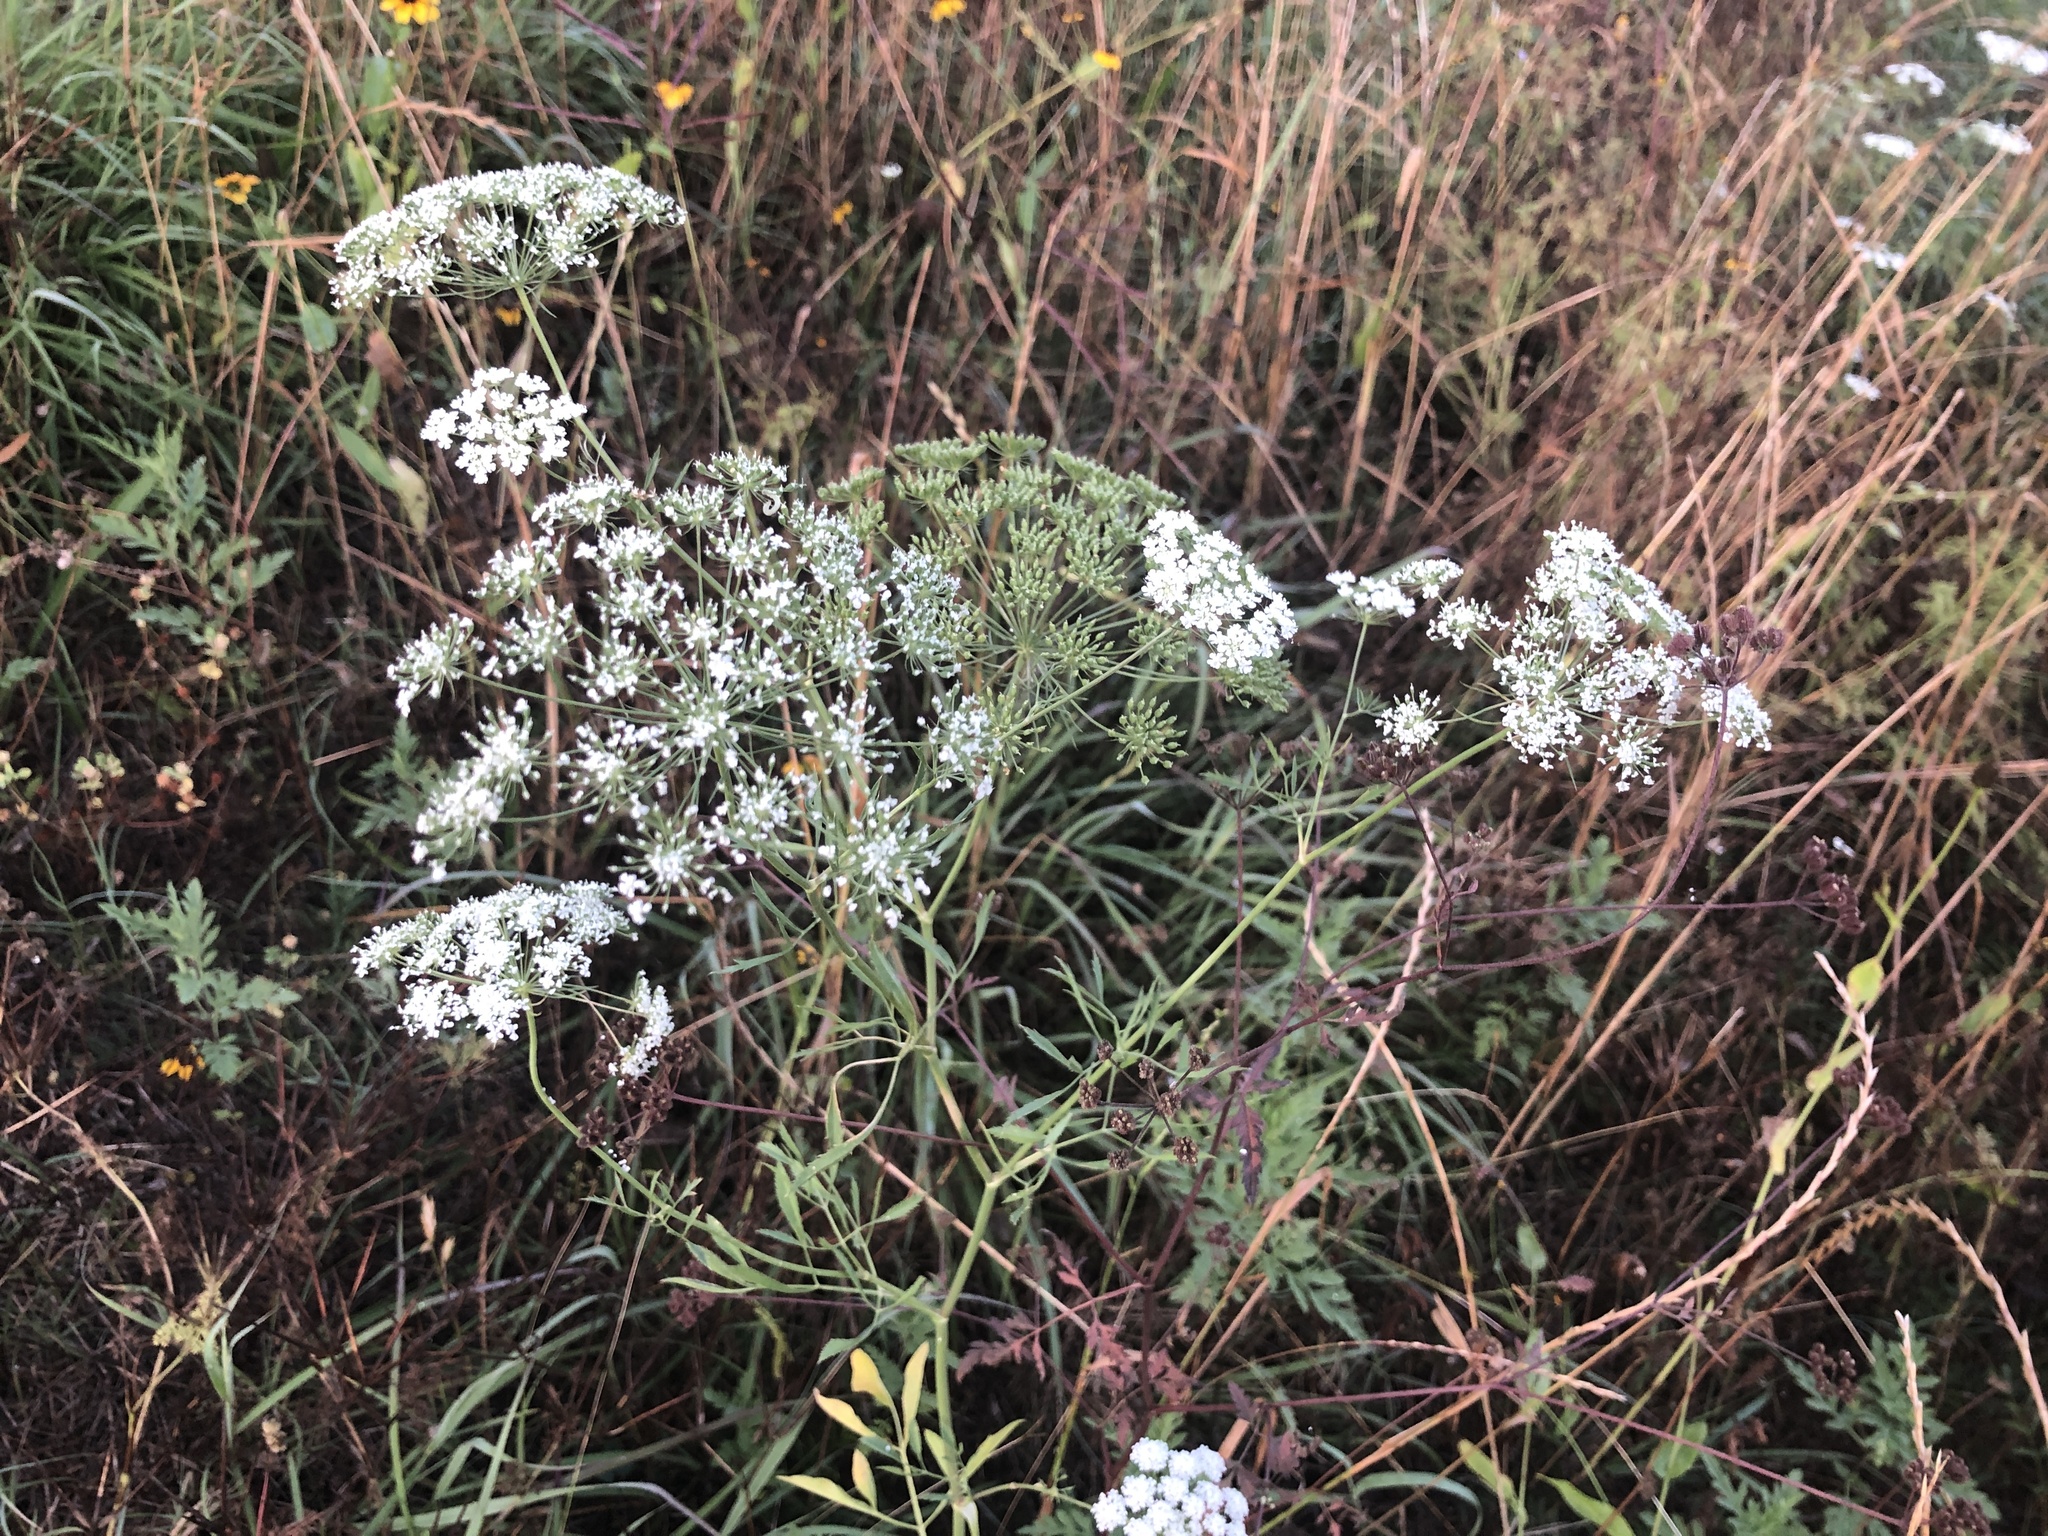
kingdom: Plantae
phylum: Tracheophyta
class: Magnoliopsida
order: Apiales
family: Apiaceae
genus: Ammi
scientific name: Ammi majus
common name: Bullwort
